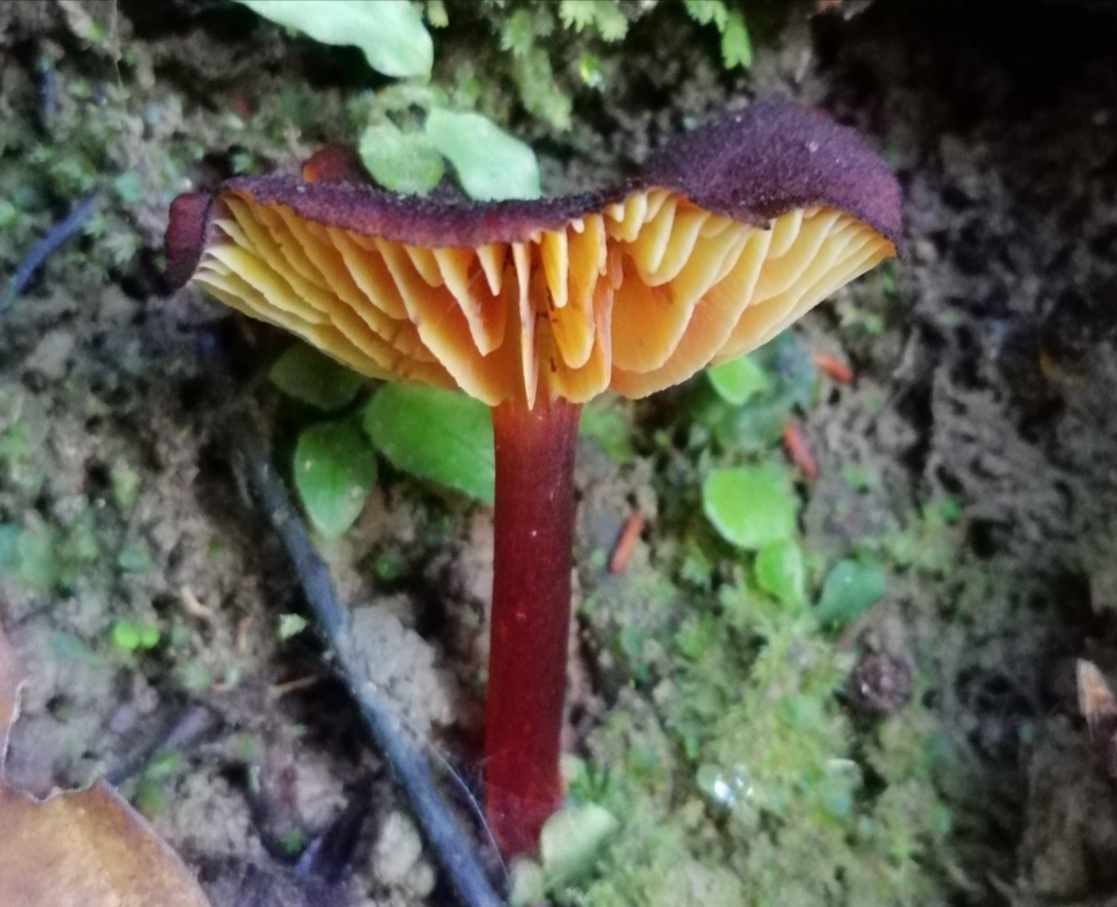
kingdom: Fungi
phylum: Basidiomycota
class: Agaricomycetes
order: Agaricales
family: Hygrophoraceae
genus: Hygrocybe
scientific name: Hygrocybe sangayensis
